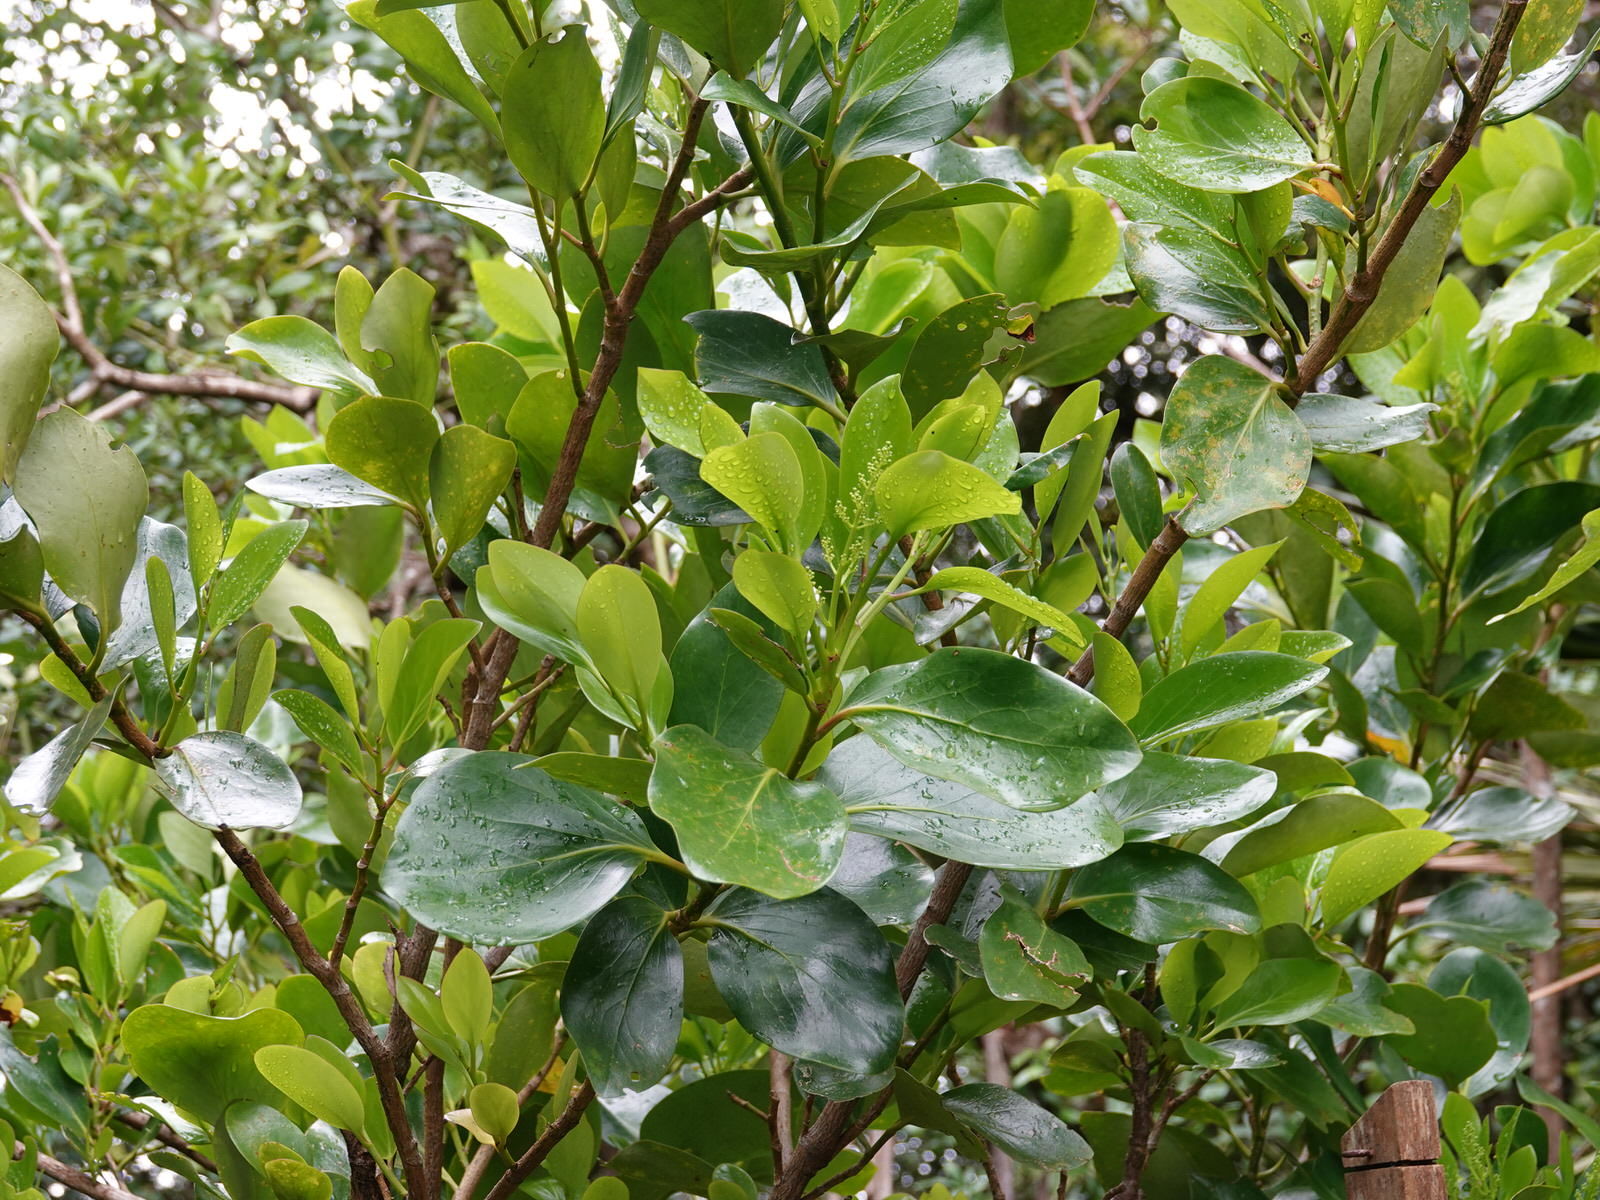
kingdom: Plantae
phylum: Tracheophyta
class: Magnoliopsida
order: Apiales
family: Griseliniaceae
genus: Griselinia
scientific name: Griselinia lucida
